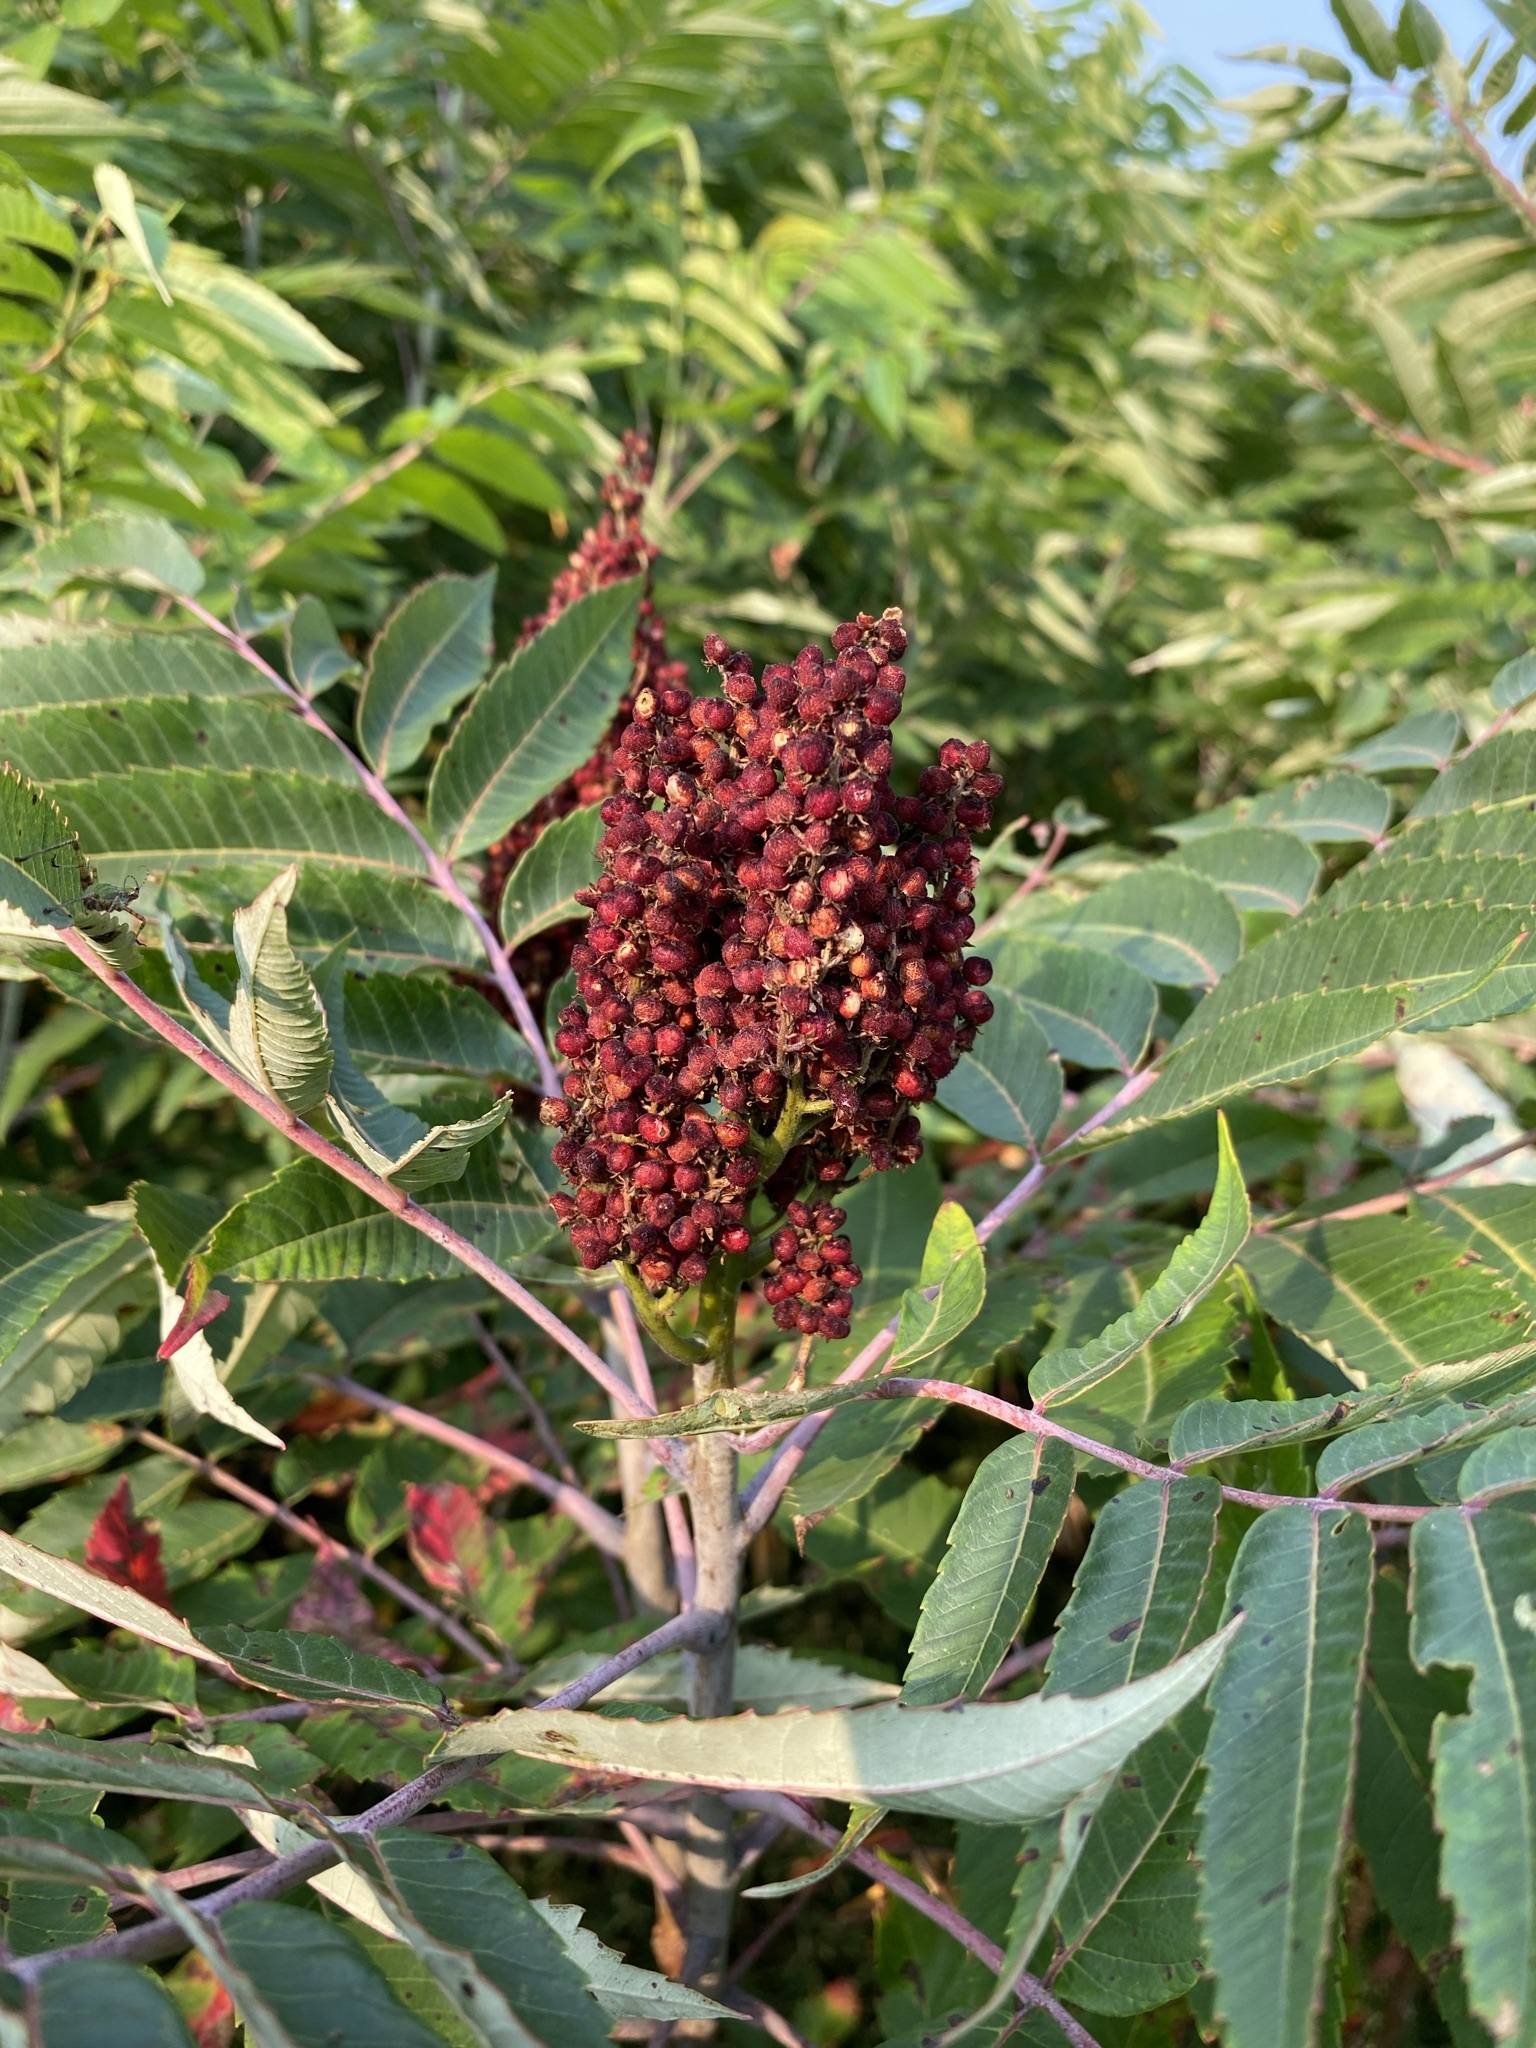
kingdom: Plantae
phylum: Tracheophyta
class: Magnoliopsida
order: Sapindales
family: Anacardiaceae
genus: Rhus
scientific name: Rhus glabra
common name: Scarlet sumac
